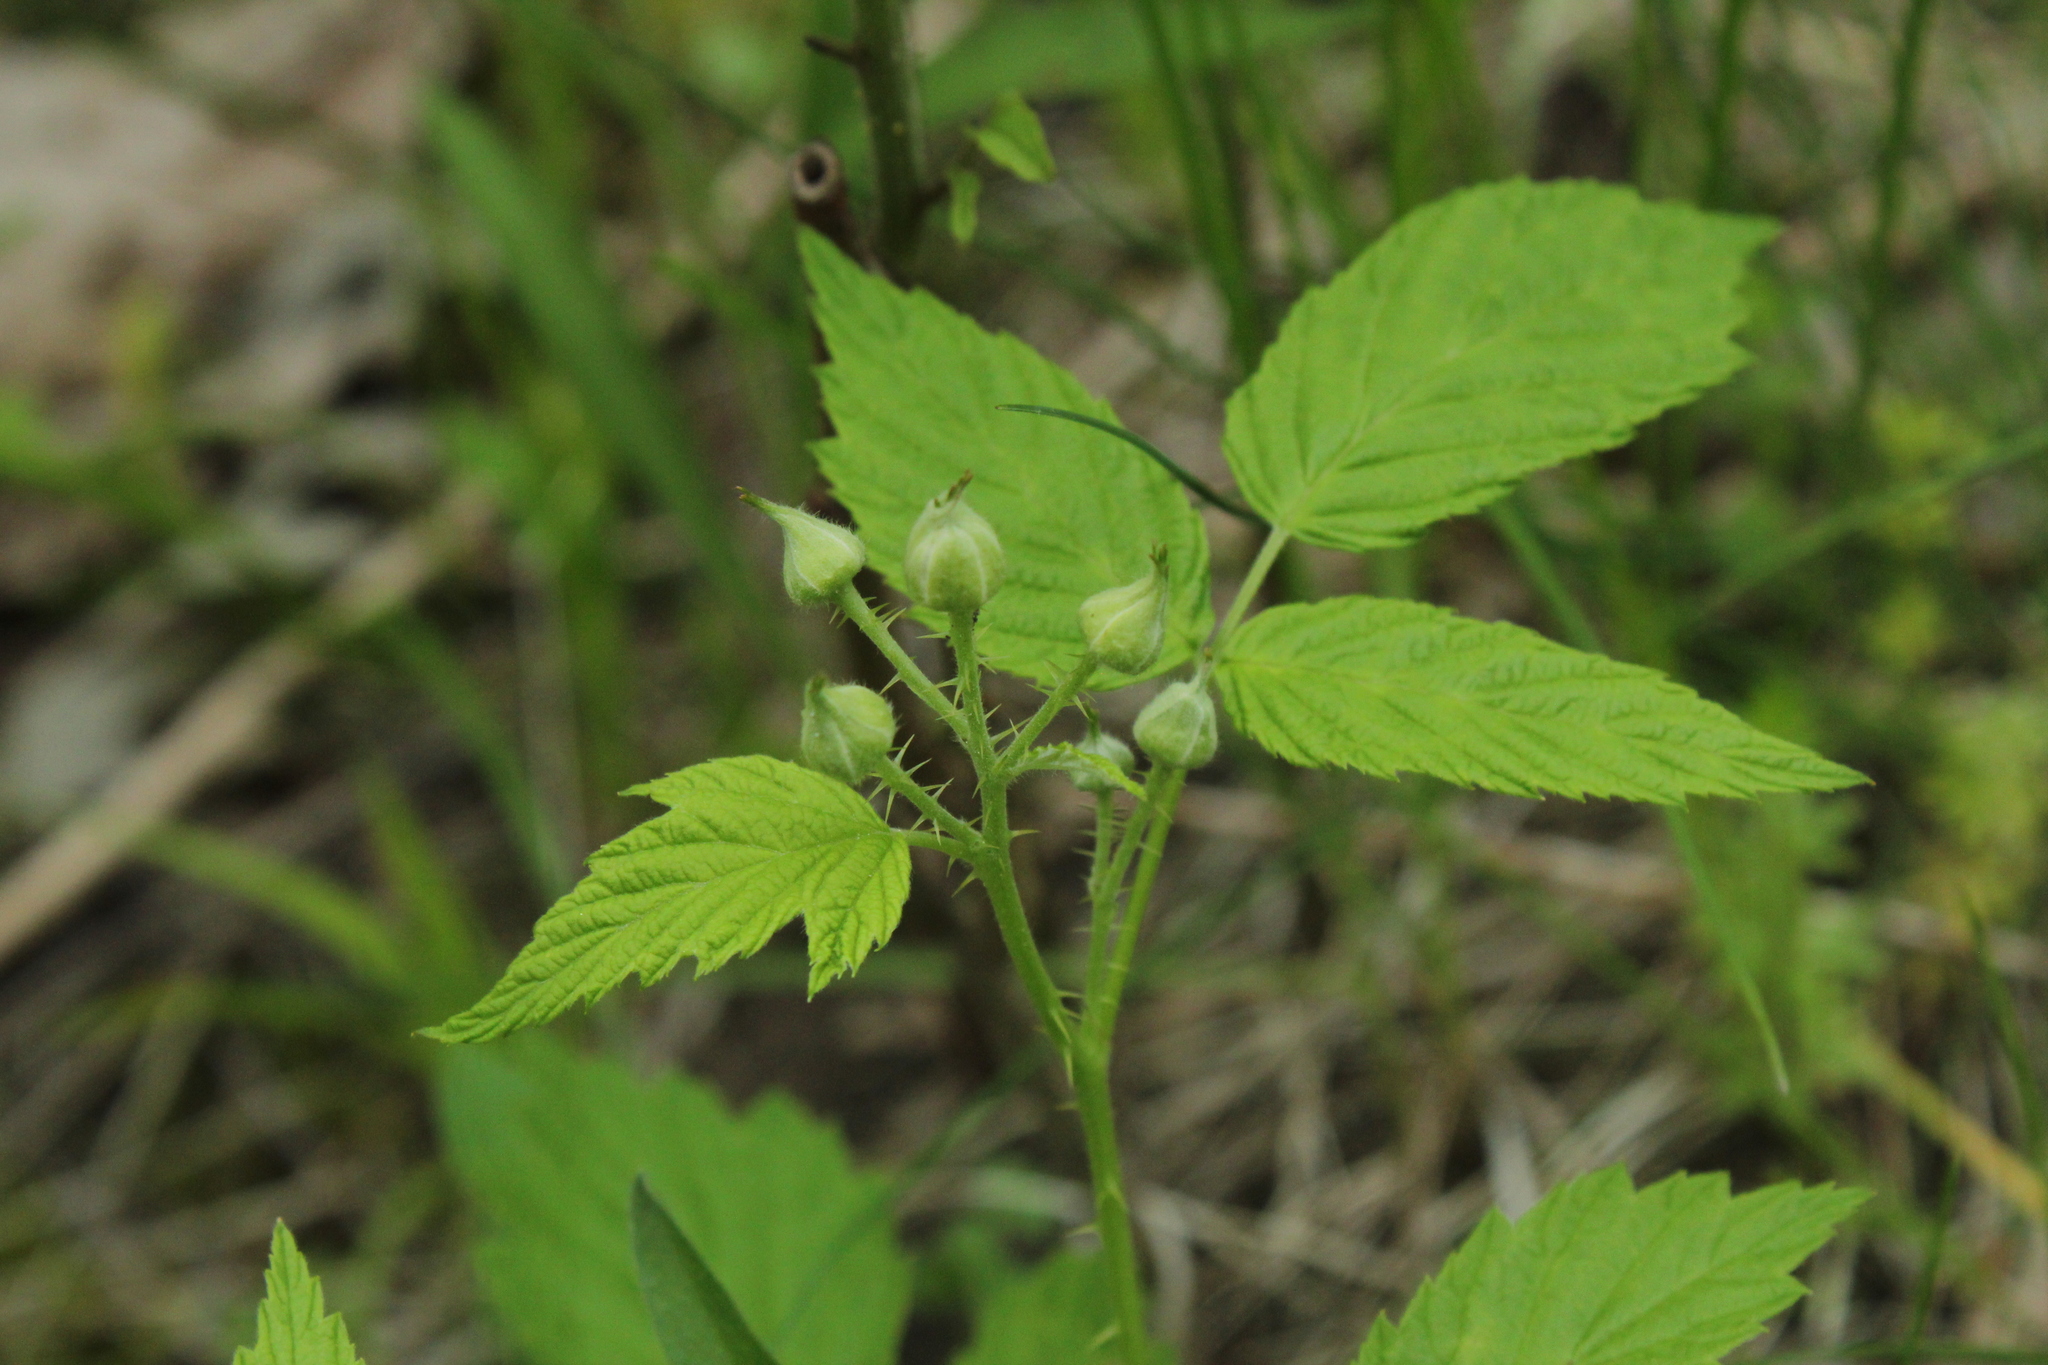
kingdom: Plantae
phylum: Tracheophyta
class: Magnoliopsida
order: Rosales
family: Rosaceae
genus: Rubus
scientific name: Rubus occidentalis
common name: Black raspberry
